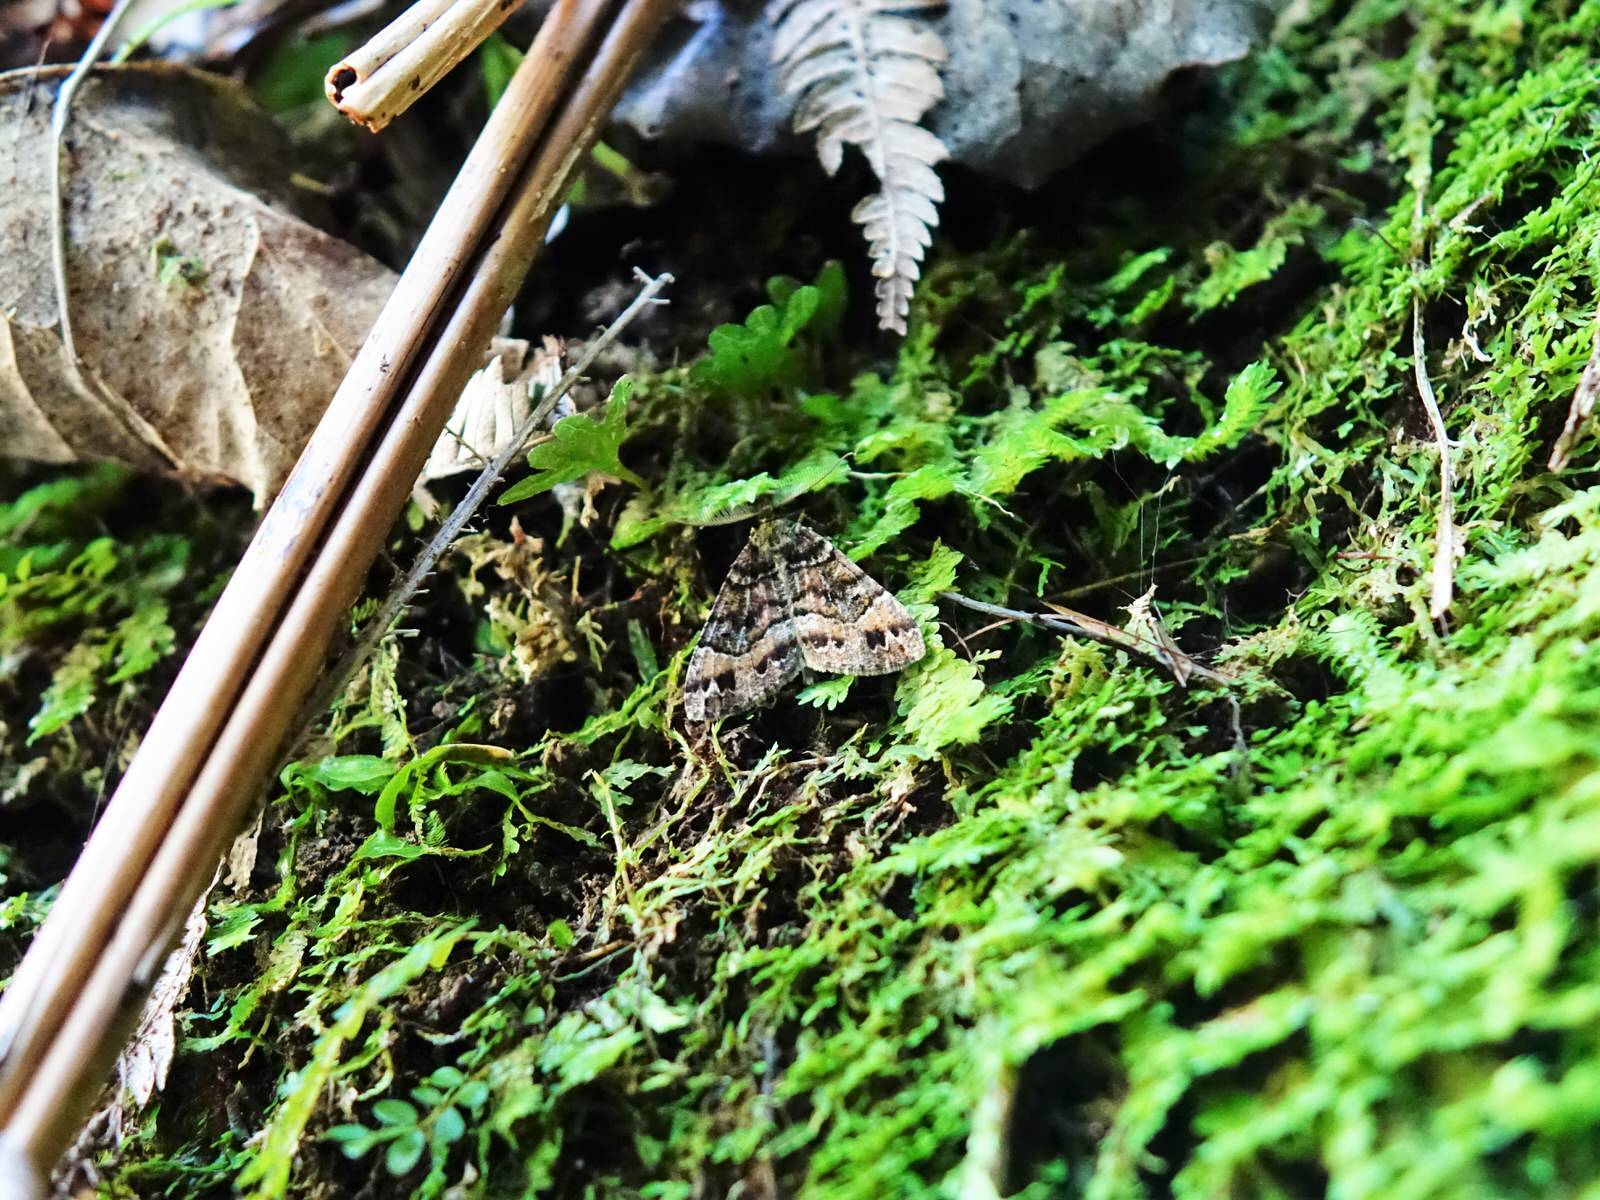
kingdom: Animalia
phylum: Arthropoda
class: Insecta
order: Lepidoptera
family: Geometridae
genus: Pseudocoremia
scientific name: Pseudocoremia productata
